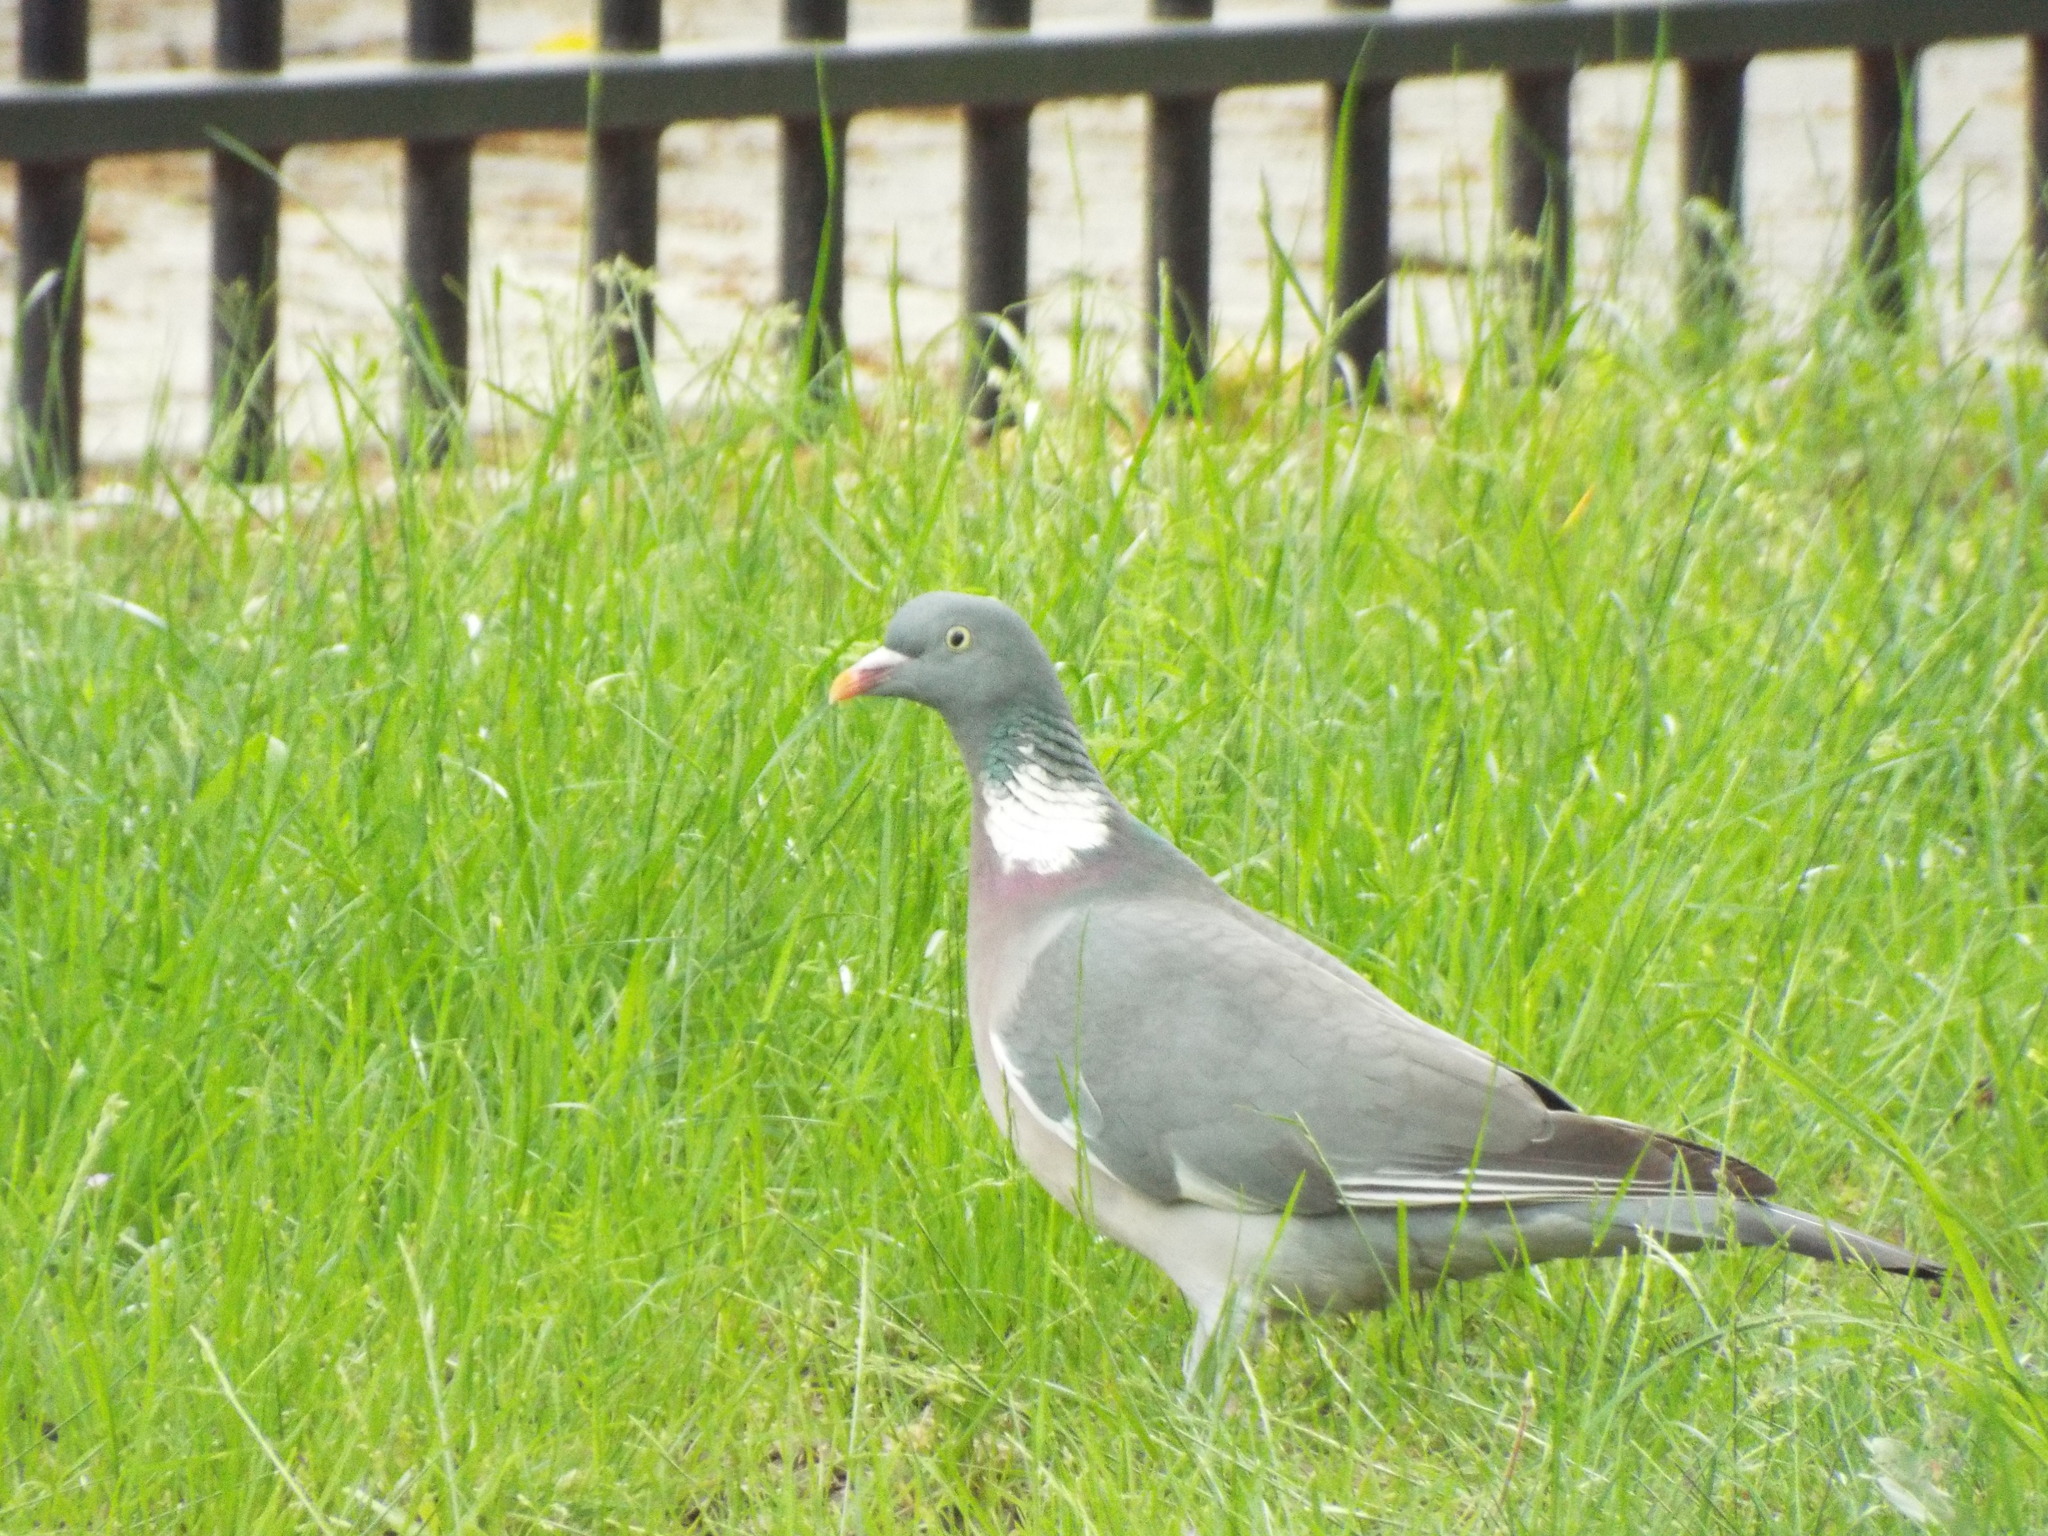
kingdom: Animalia
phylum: Chordata
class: Aves
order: Columbiformes
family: Columbidae
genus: Columba
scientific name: Columba palumbus
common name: Common wood pigeon
